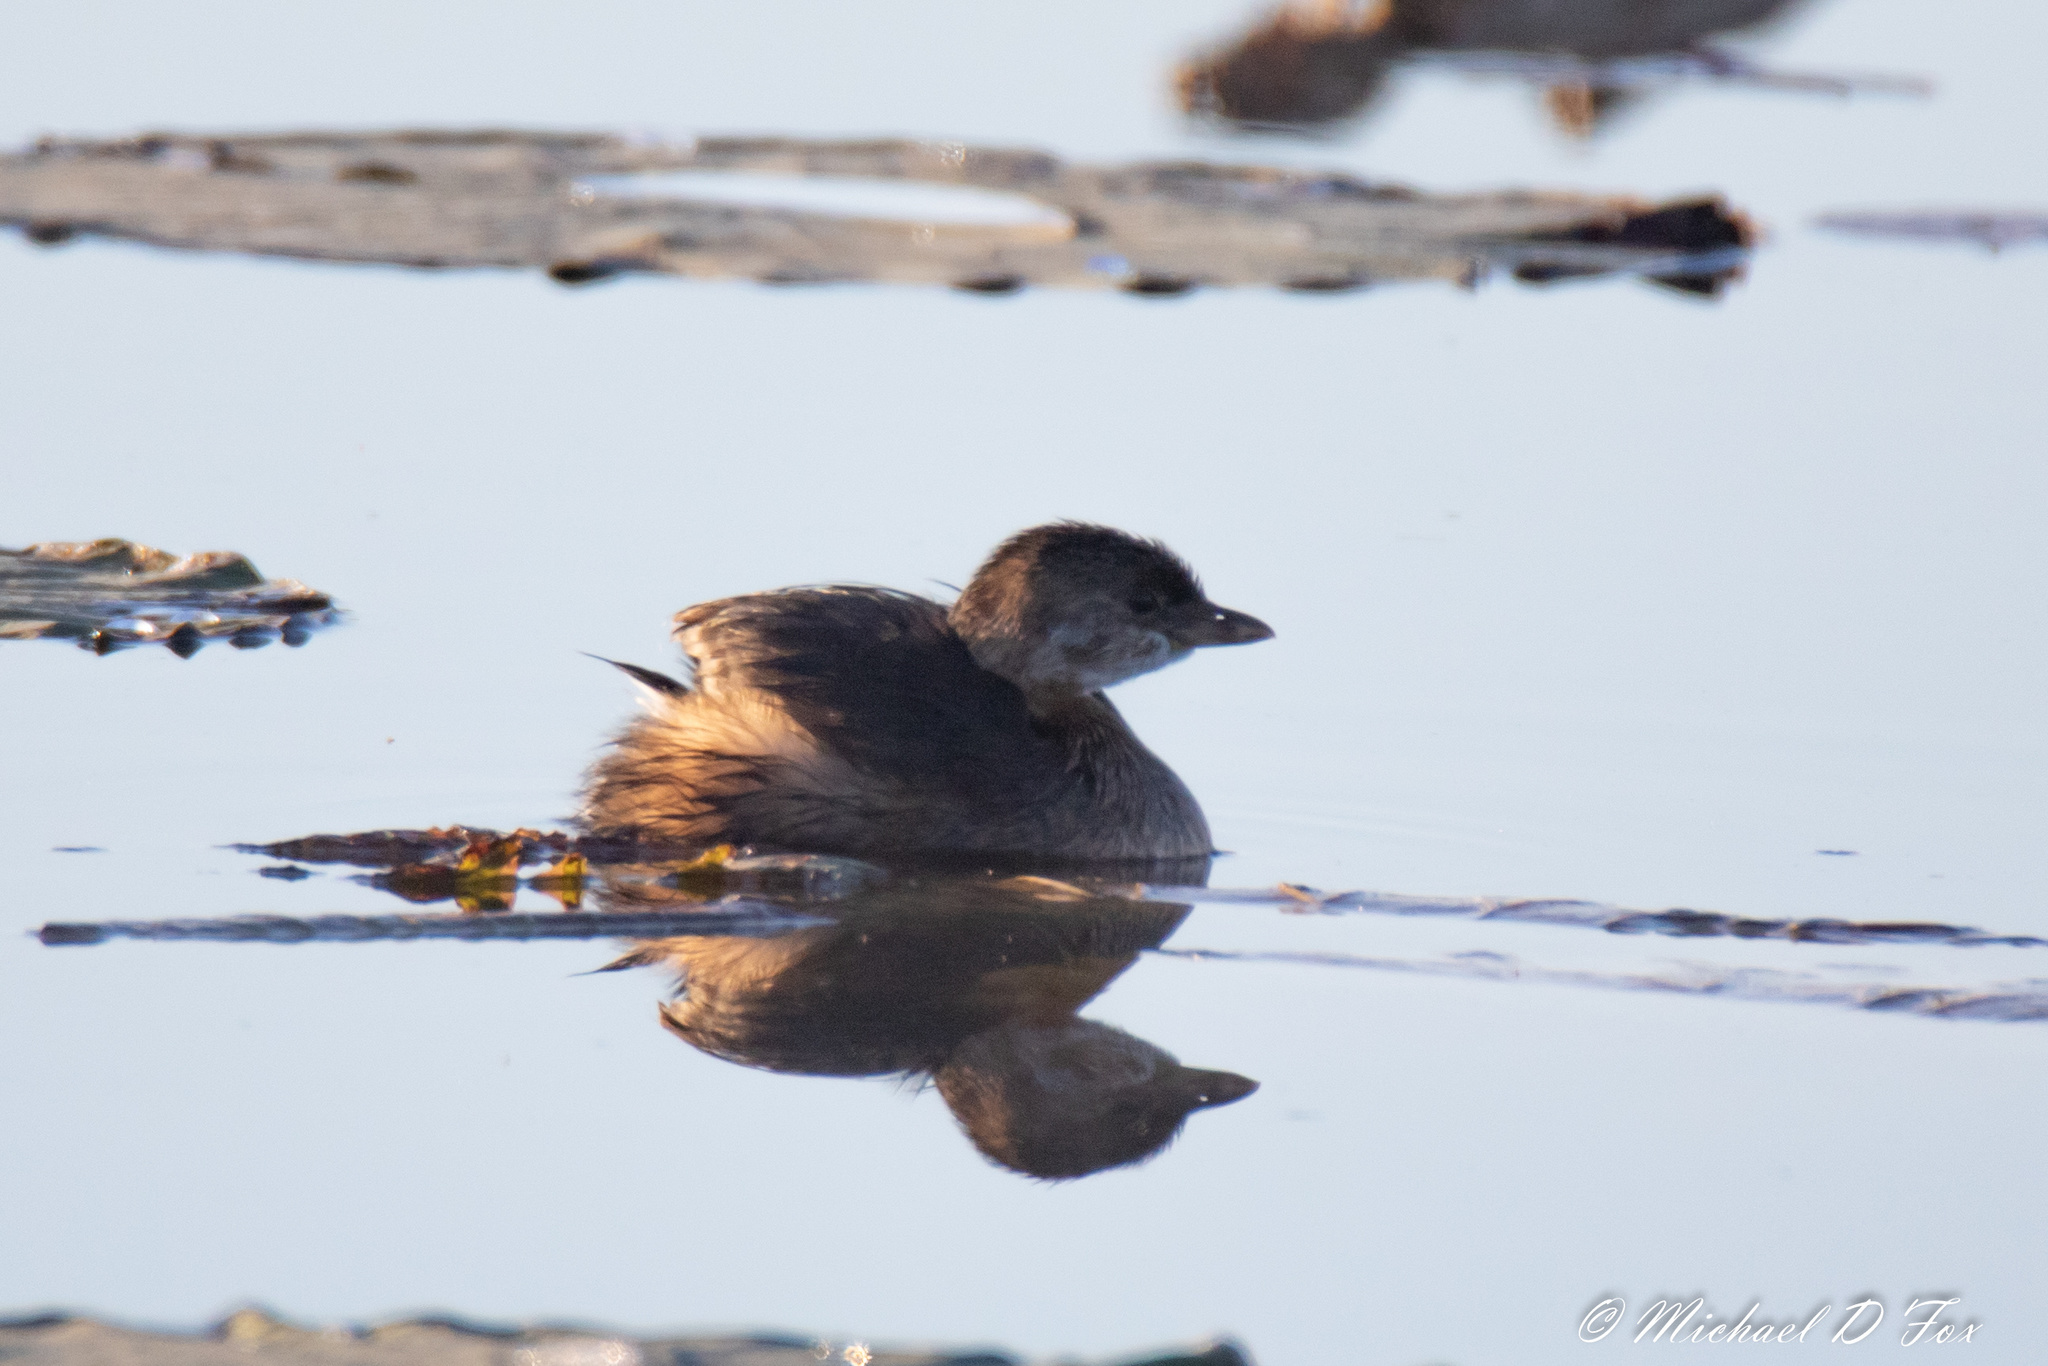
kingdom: Animalia
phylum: Chordata
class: Aves
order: Podicipediformes
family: Podicipedidae
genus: Podilymbus
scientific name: Podilymbus podiceps
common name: Pied-billed grebe
